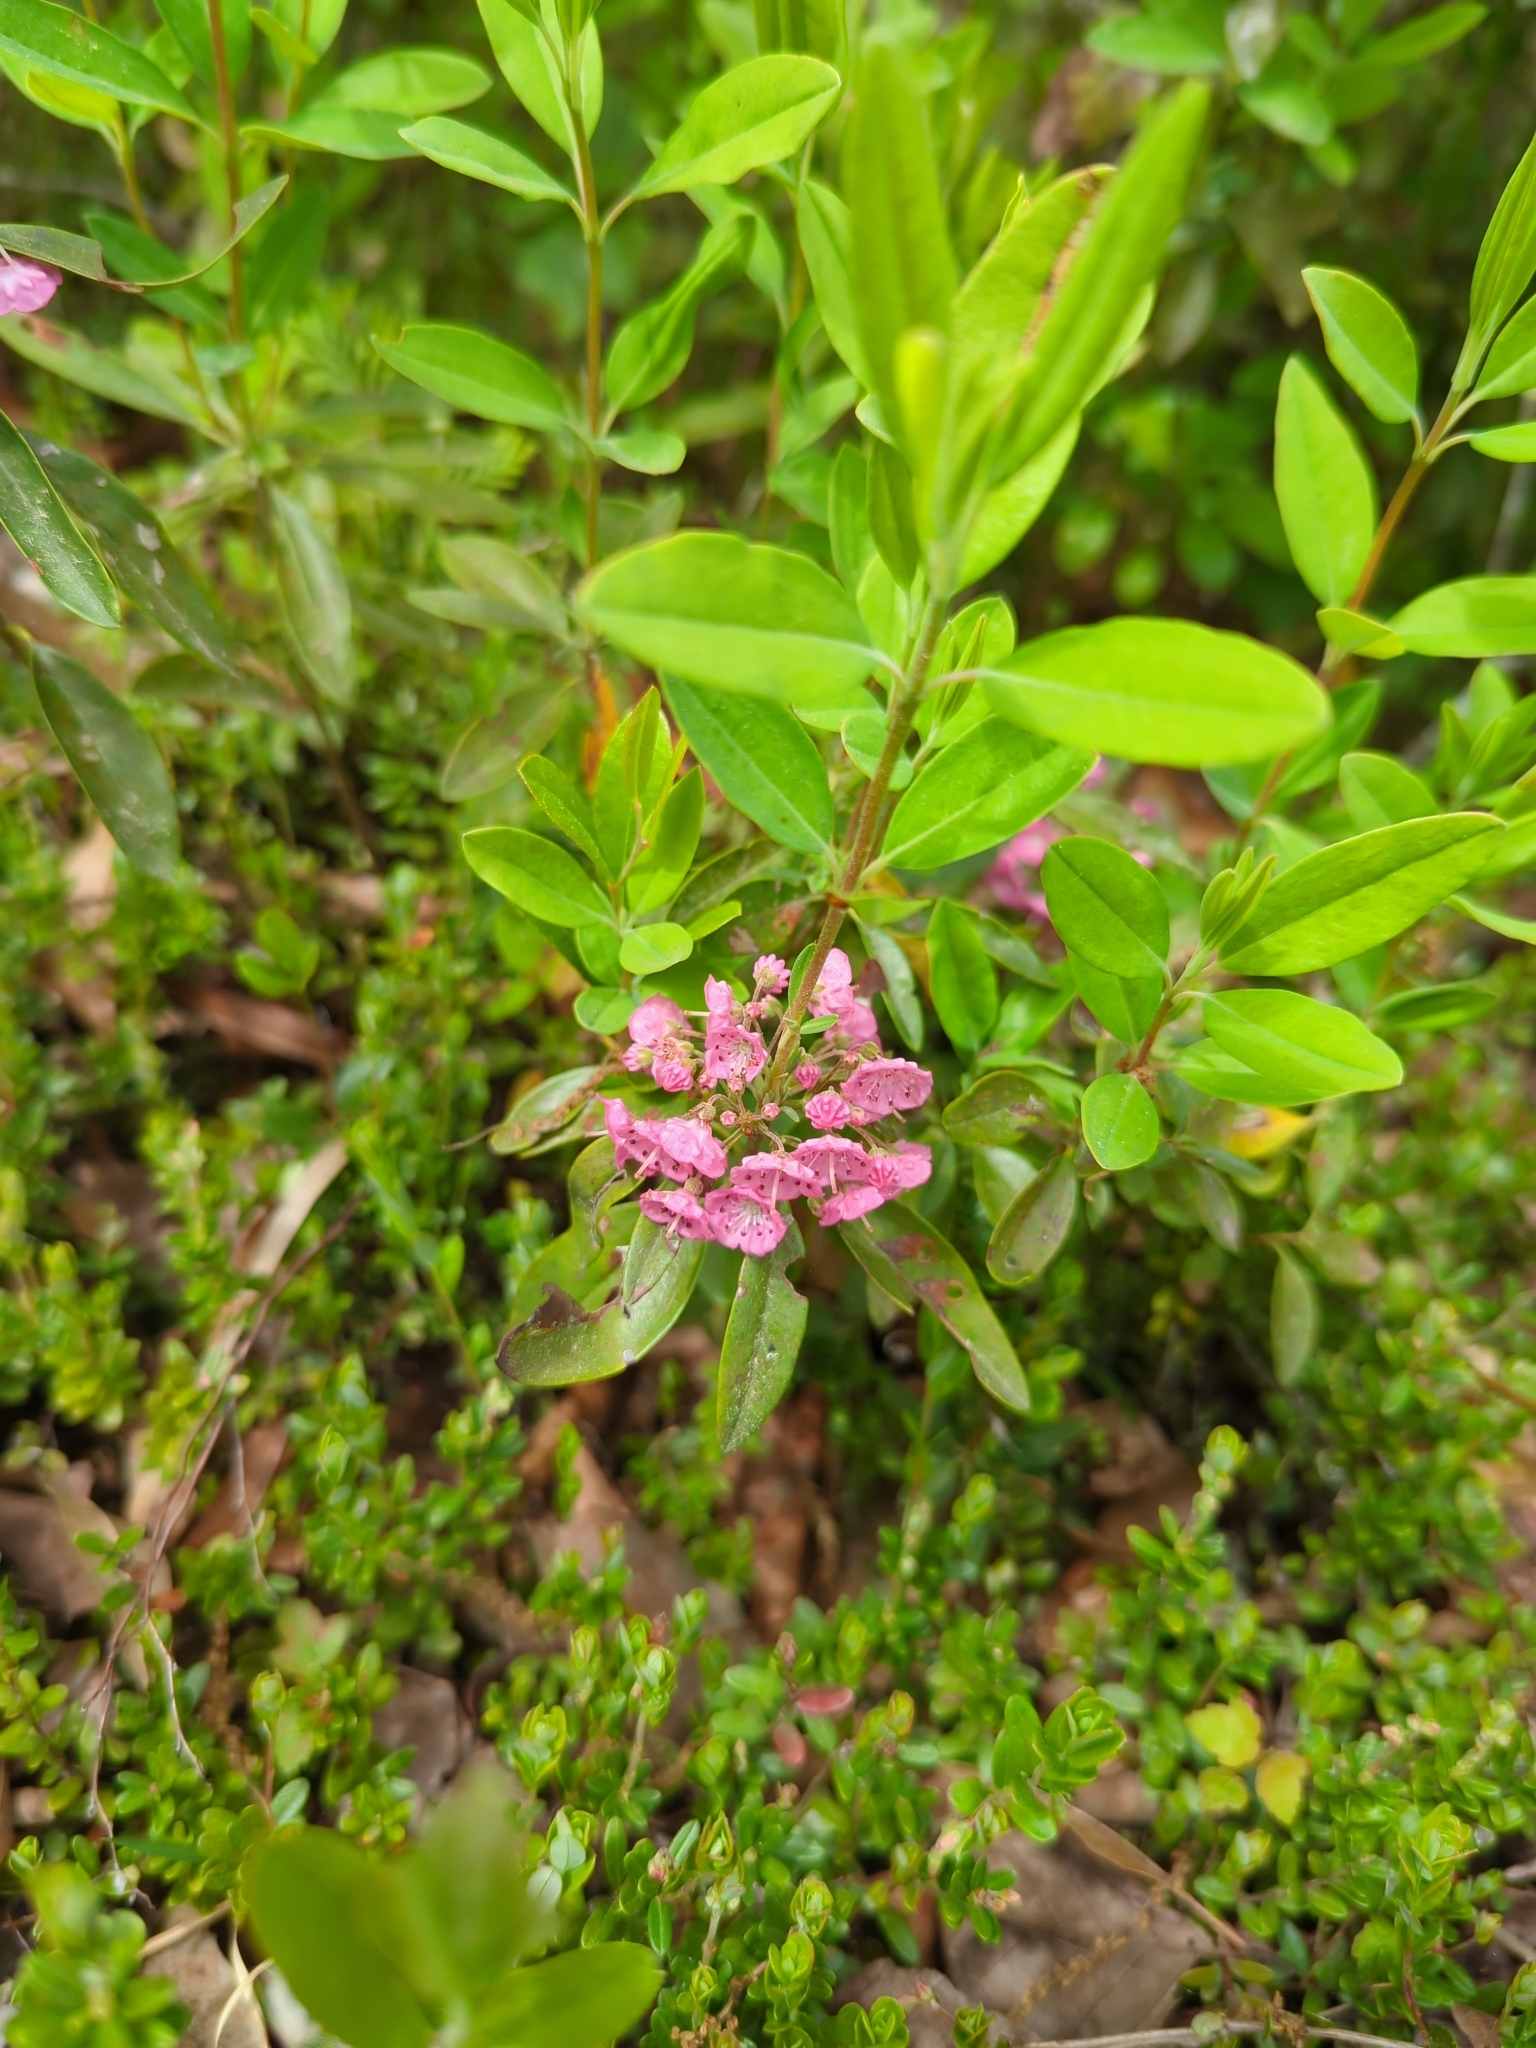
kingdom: Plantae
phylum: Tracheophyta
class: Magnoliopsida
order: Ericales
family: Ericaceae
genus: Kalmia
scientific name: Kalmia angustifolia
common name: Sheep-laurel
